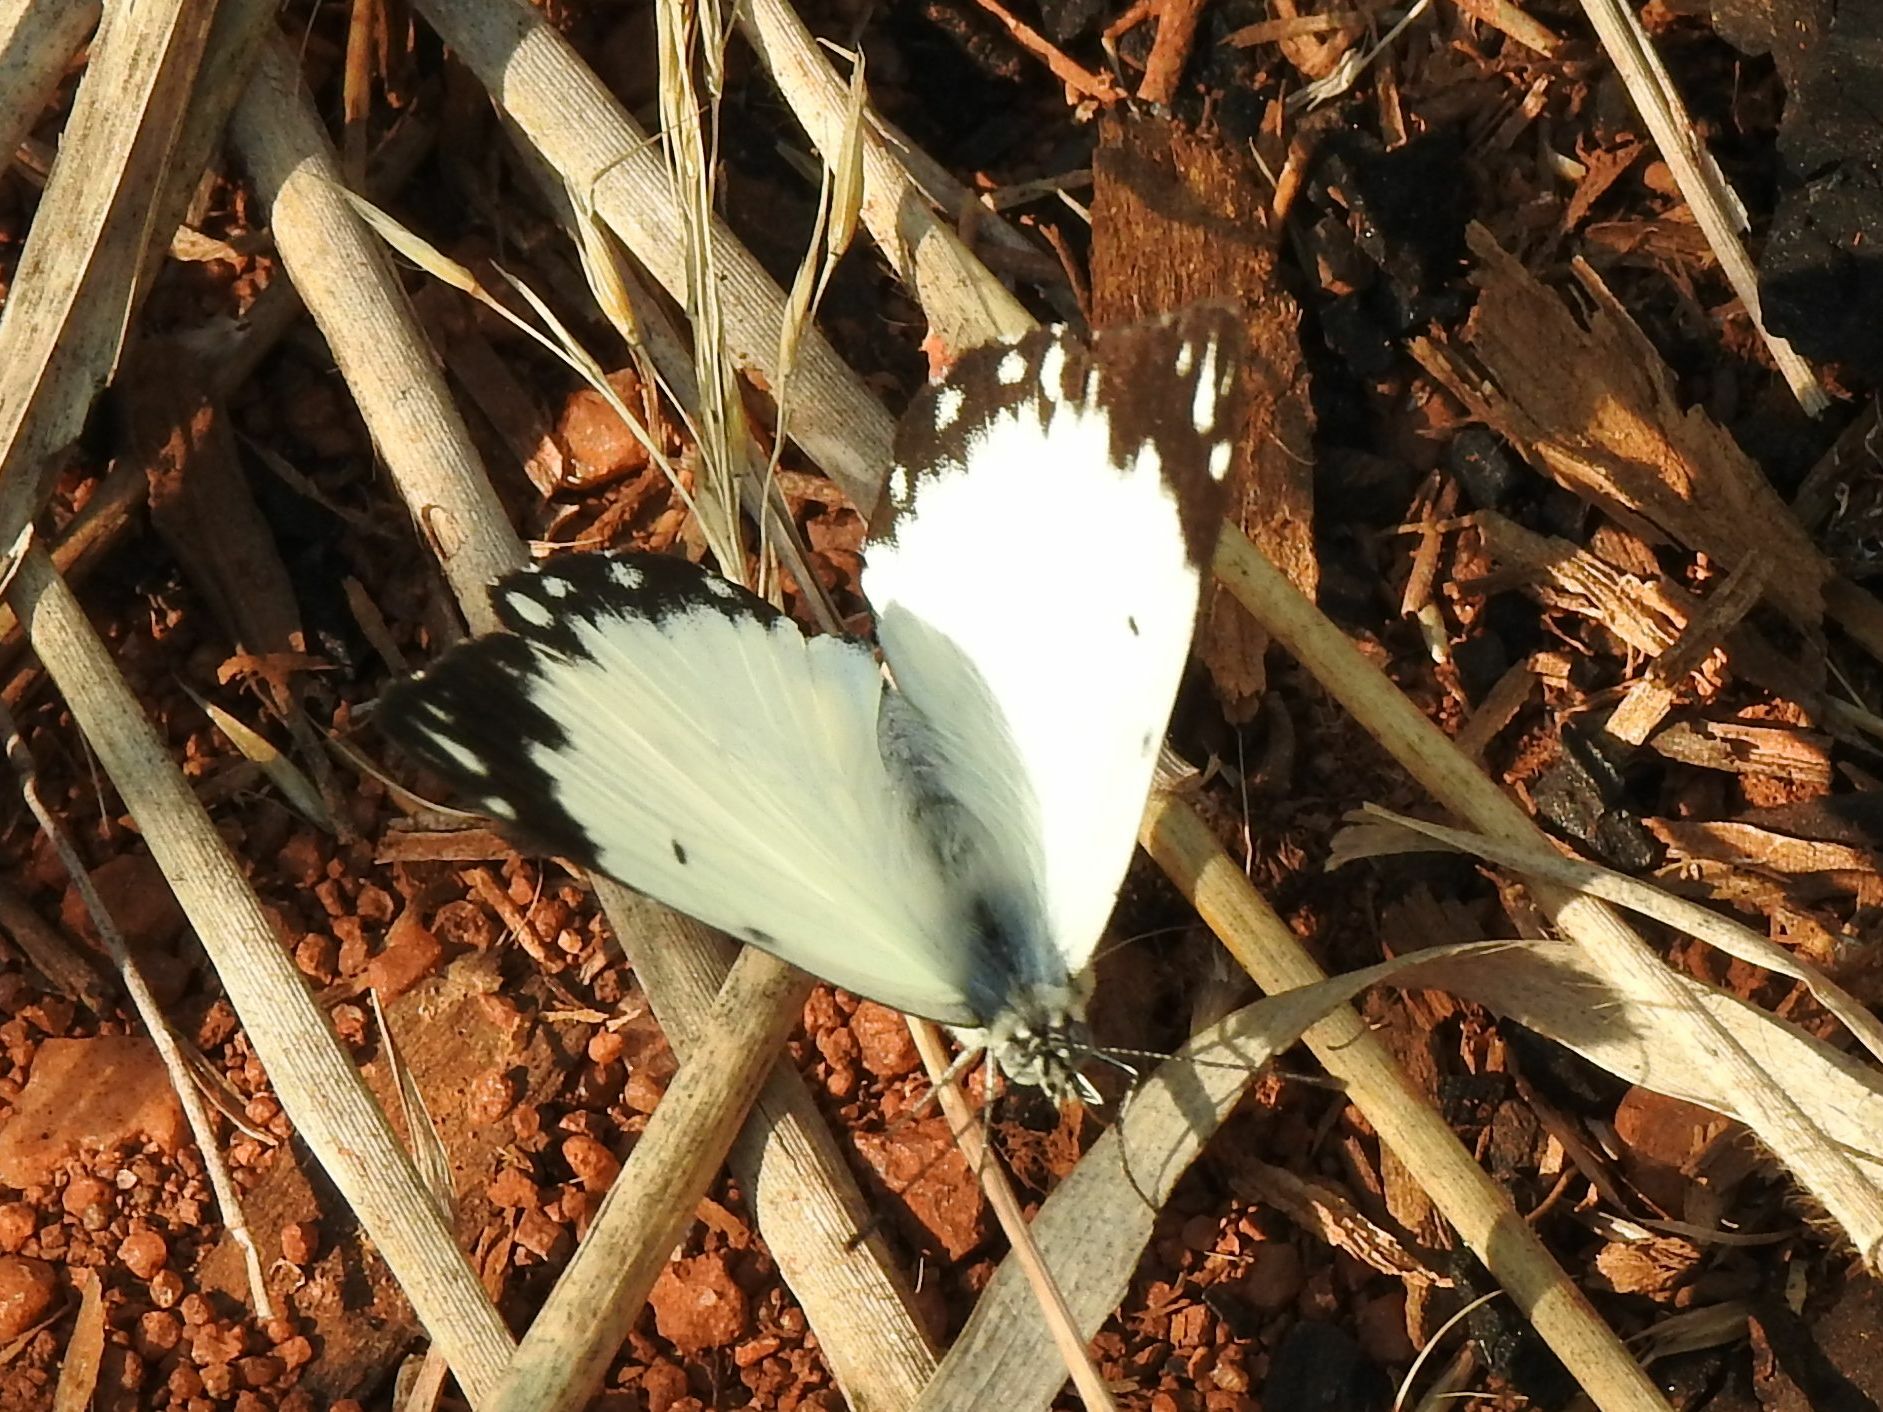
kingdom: Animalia
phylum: Arthropoda
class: Insecta
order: Lepidoptera
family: Pieridae
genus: Belenois
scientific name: Belenois creona
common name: African caper white
